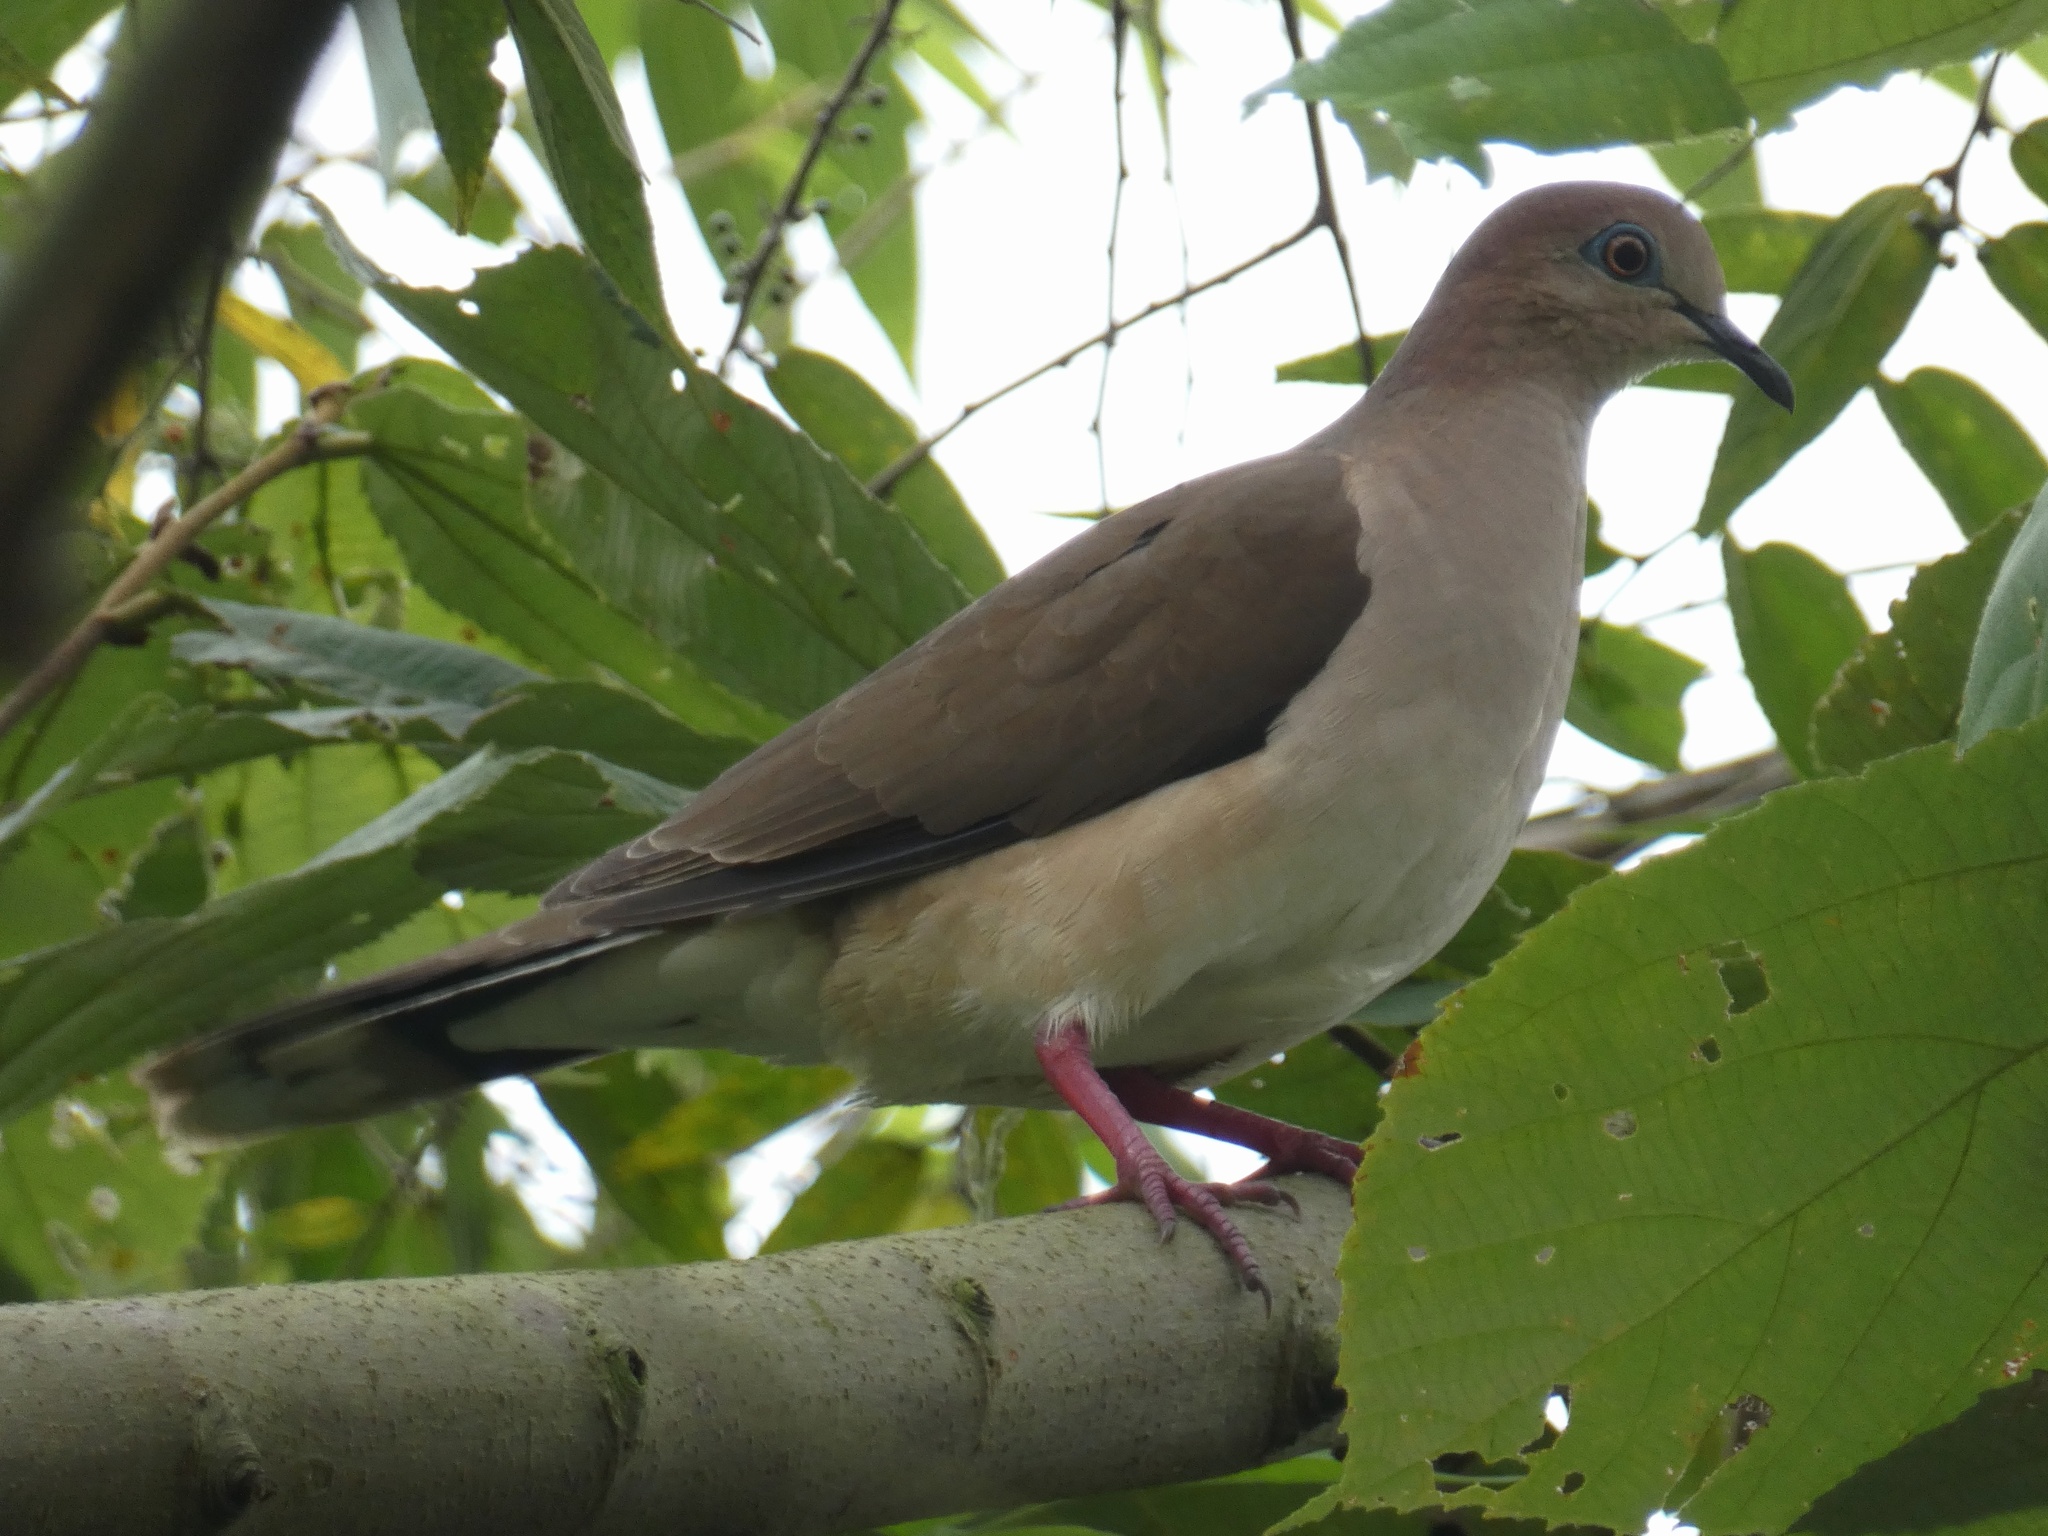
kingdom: Animalia
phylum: Chordata
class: Aves
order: Columbiformes
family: Columbidae
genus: Leptotila
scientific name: Leptotila verreauxi
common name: White-tipped dove
